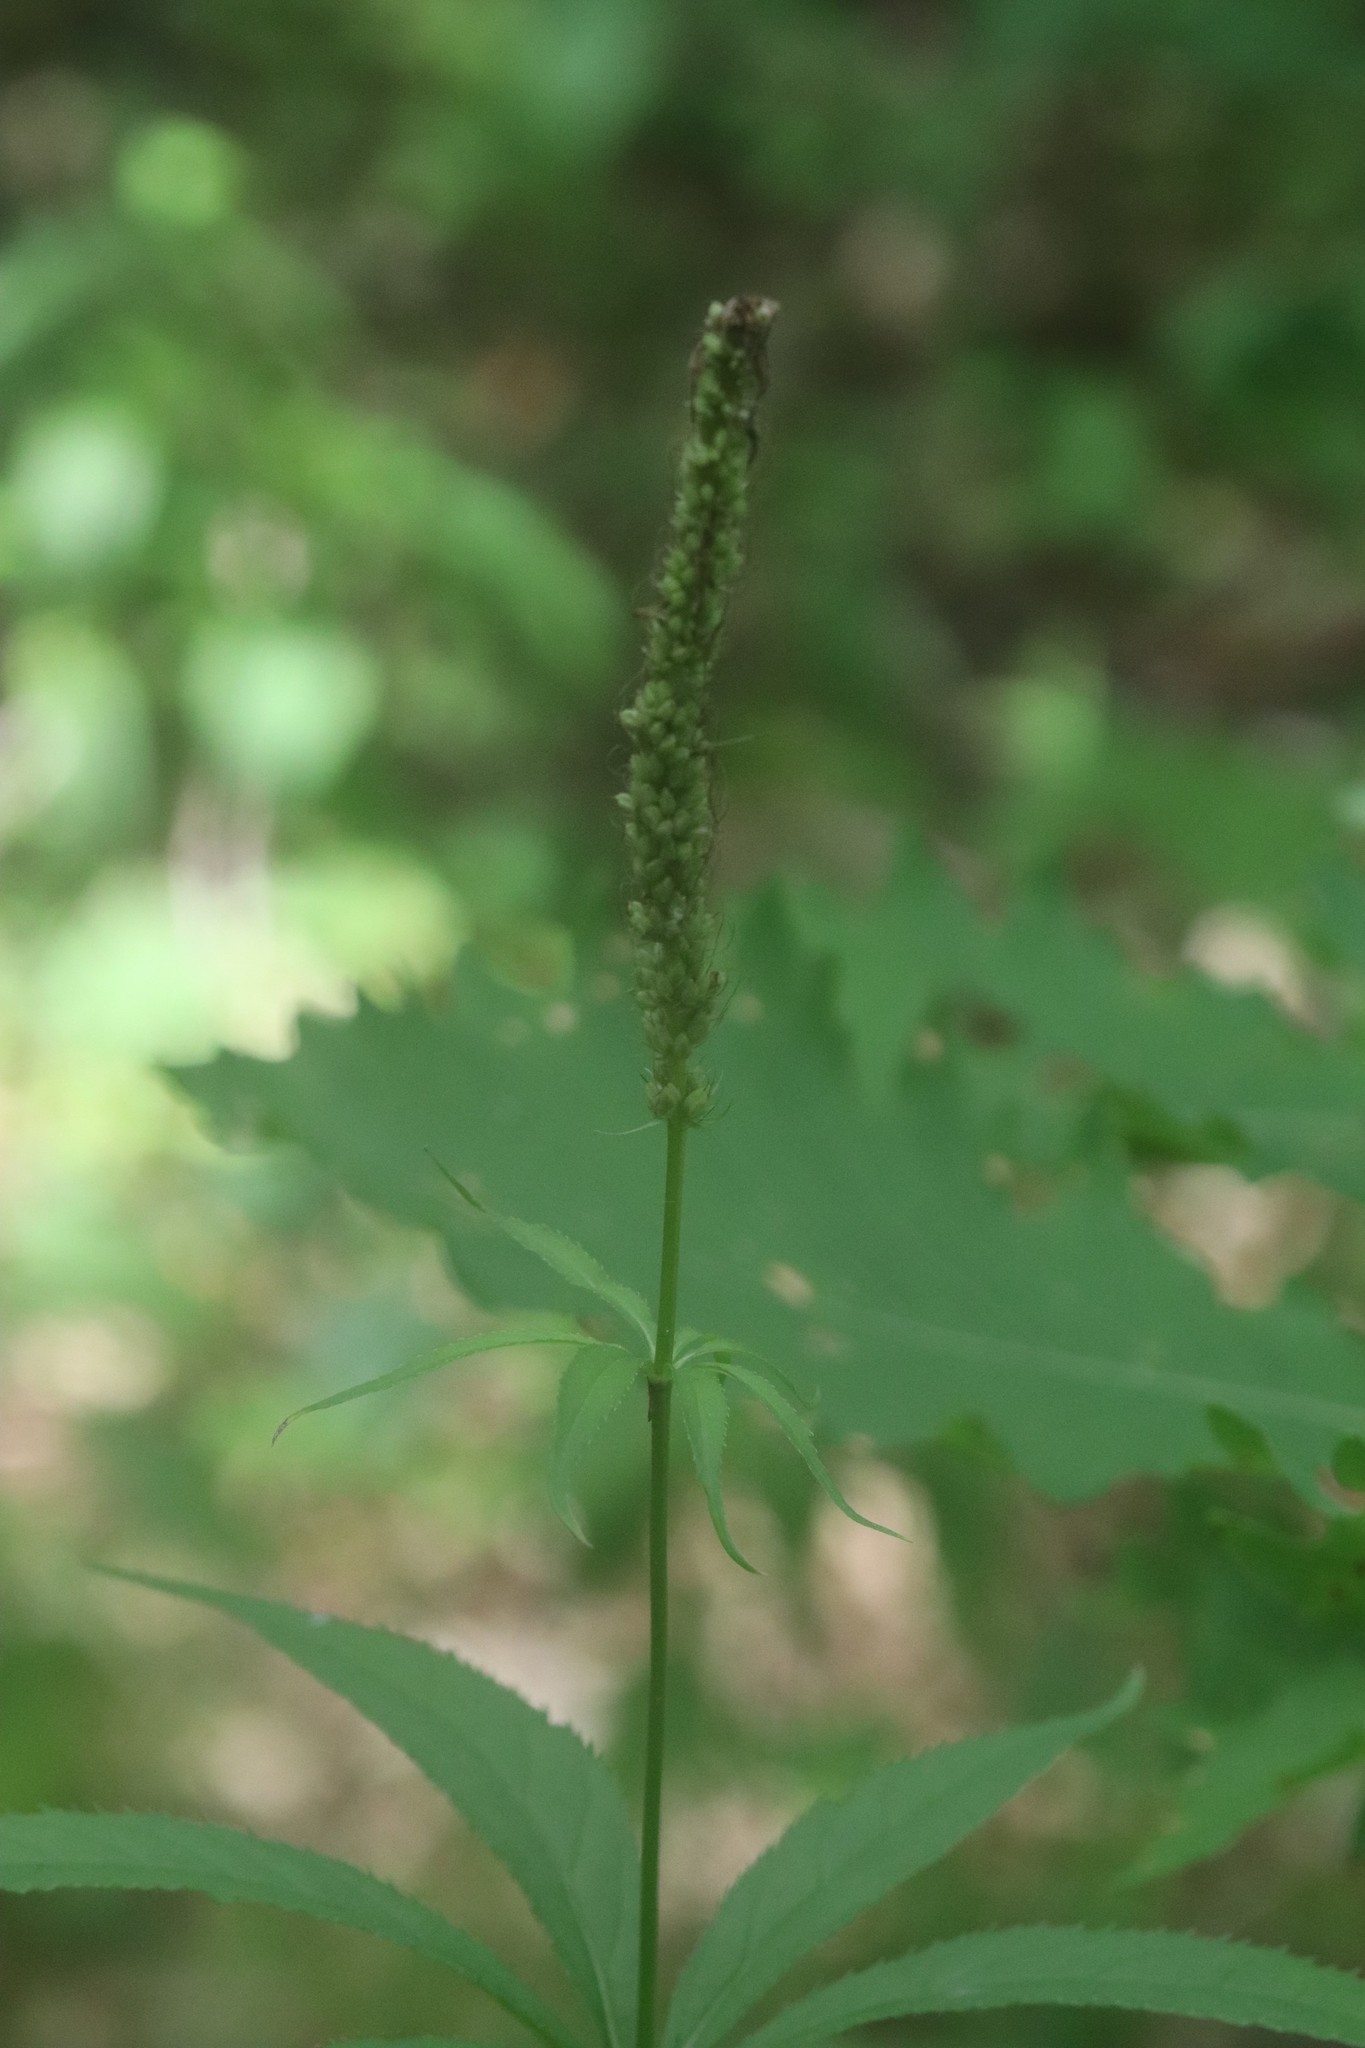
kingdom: Plantae
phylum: Tracheophyta
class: Magnoliopsida
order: Lamiales
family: Plantaginaceae
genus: Veronicastrum
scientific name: Veronicastrum sibiricum
